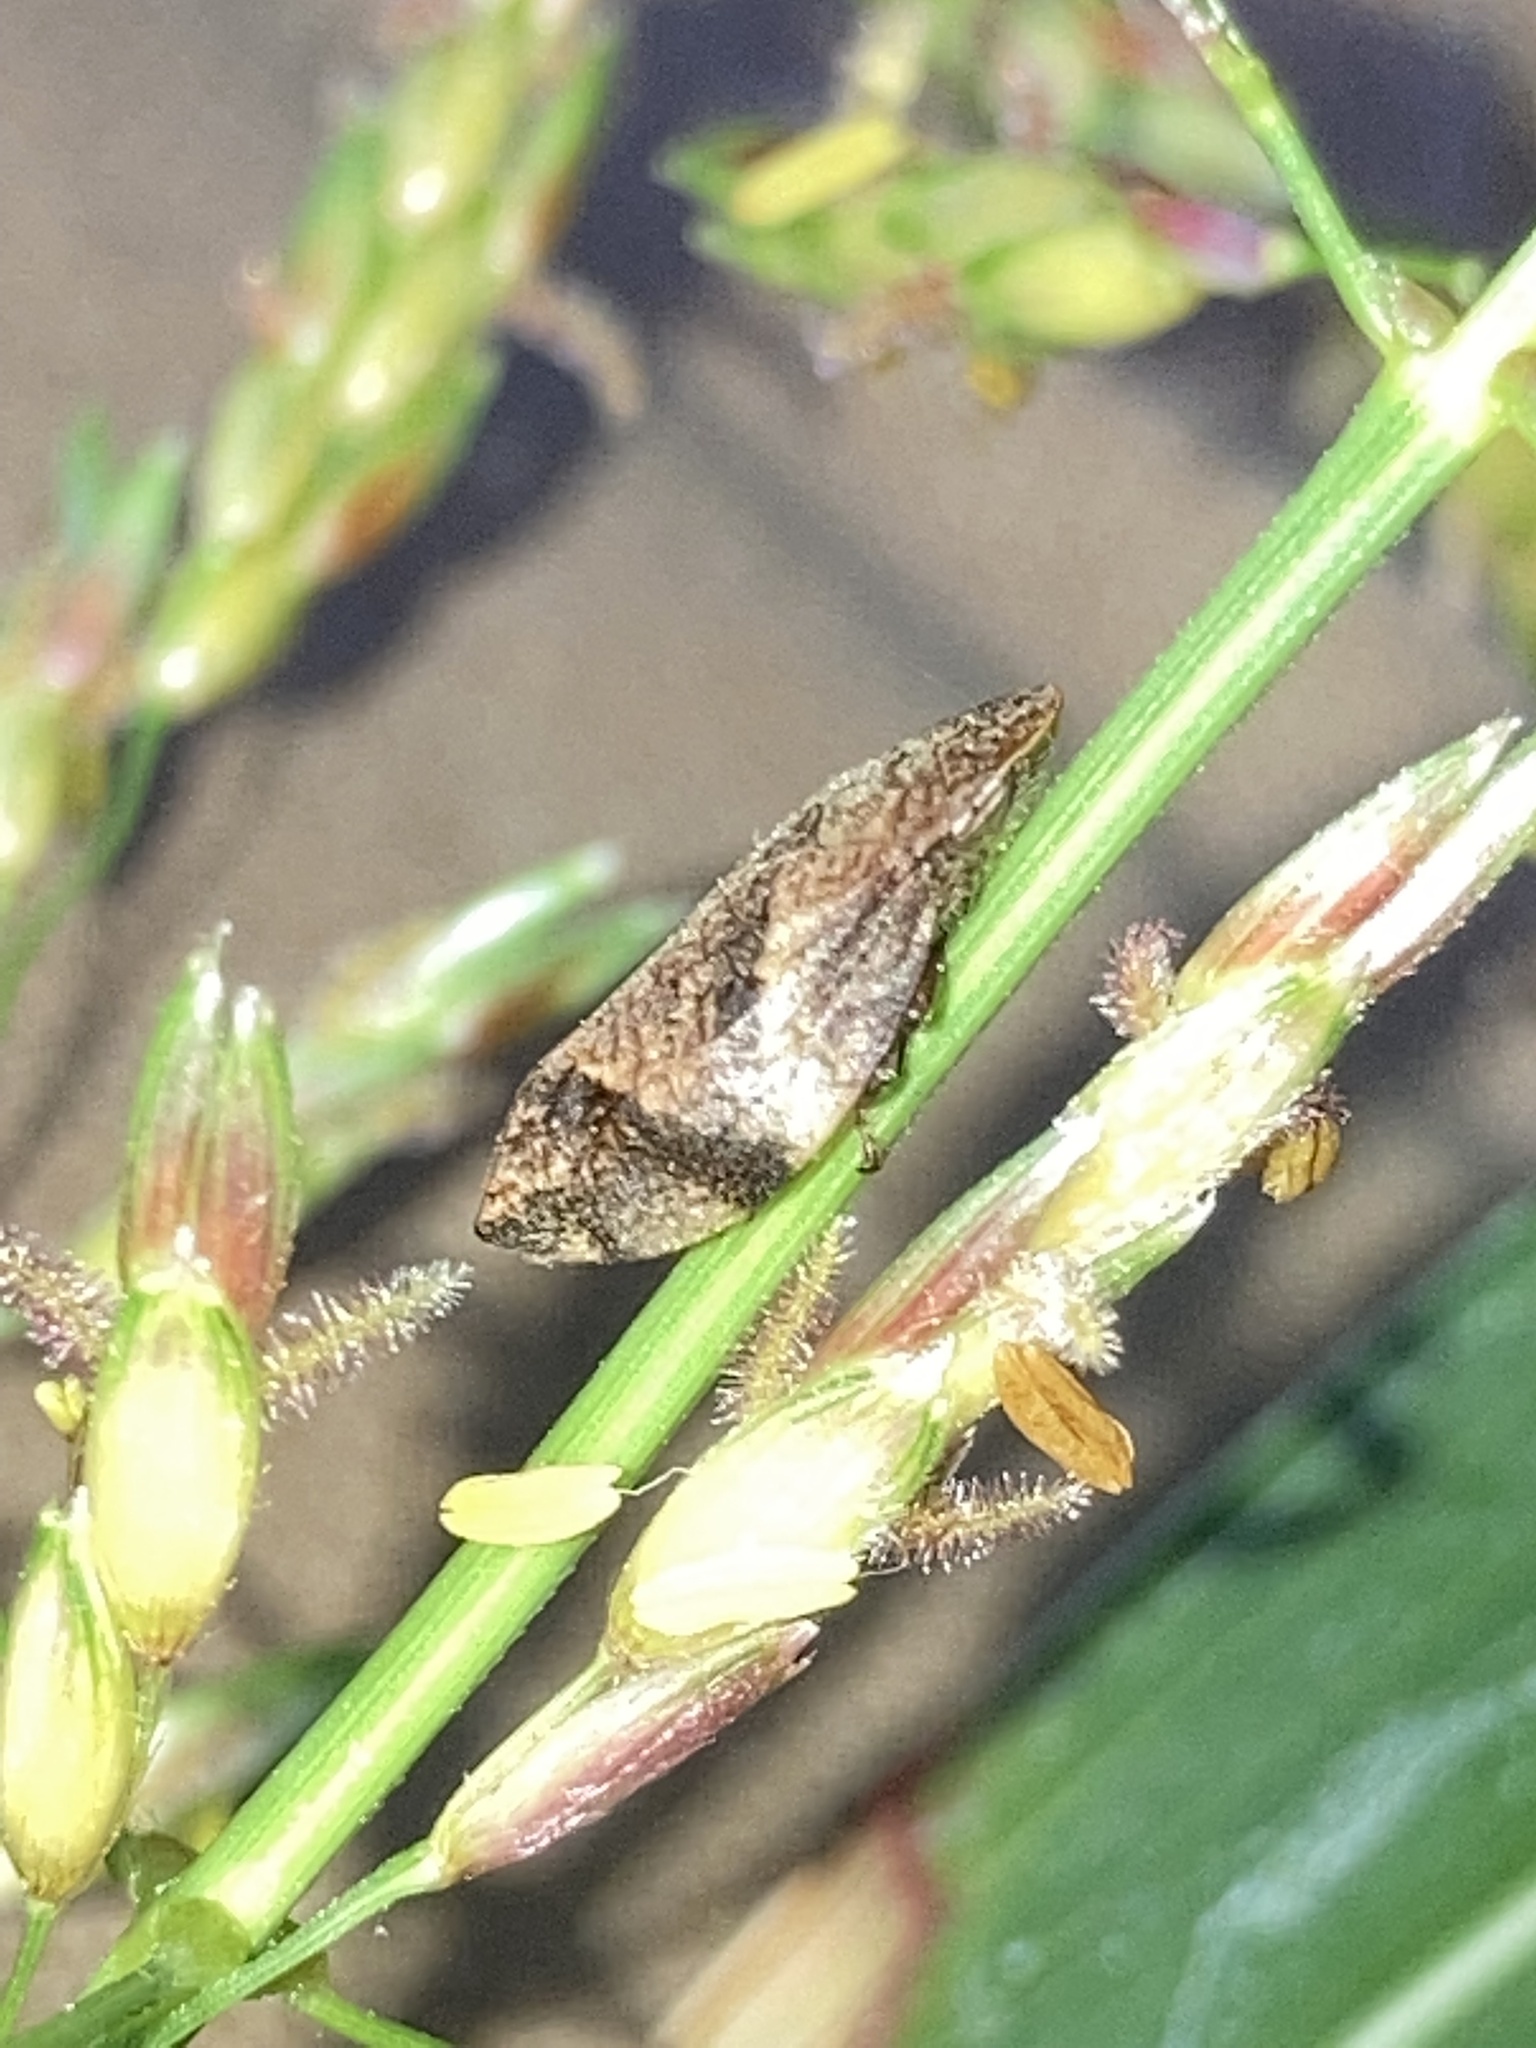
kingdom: Animalia
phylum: Arthropoda
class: Insecta
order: Hemiptera
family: Aphrophoridae
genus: Lepyronia
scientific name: Lepyronia quadrangularis
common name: Diamond-backed spittlebug
